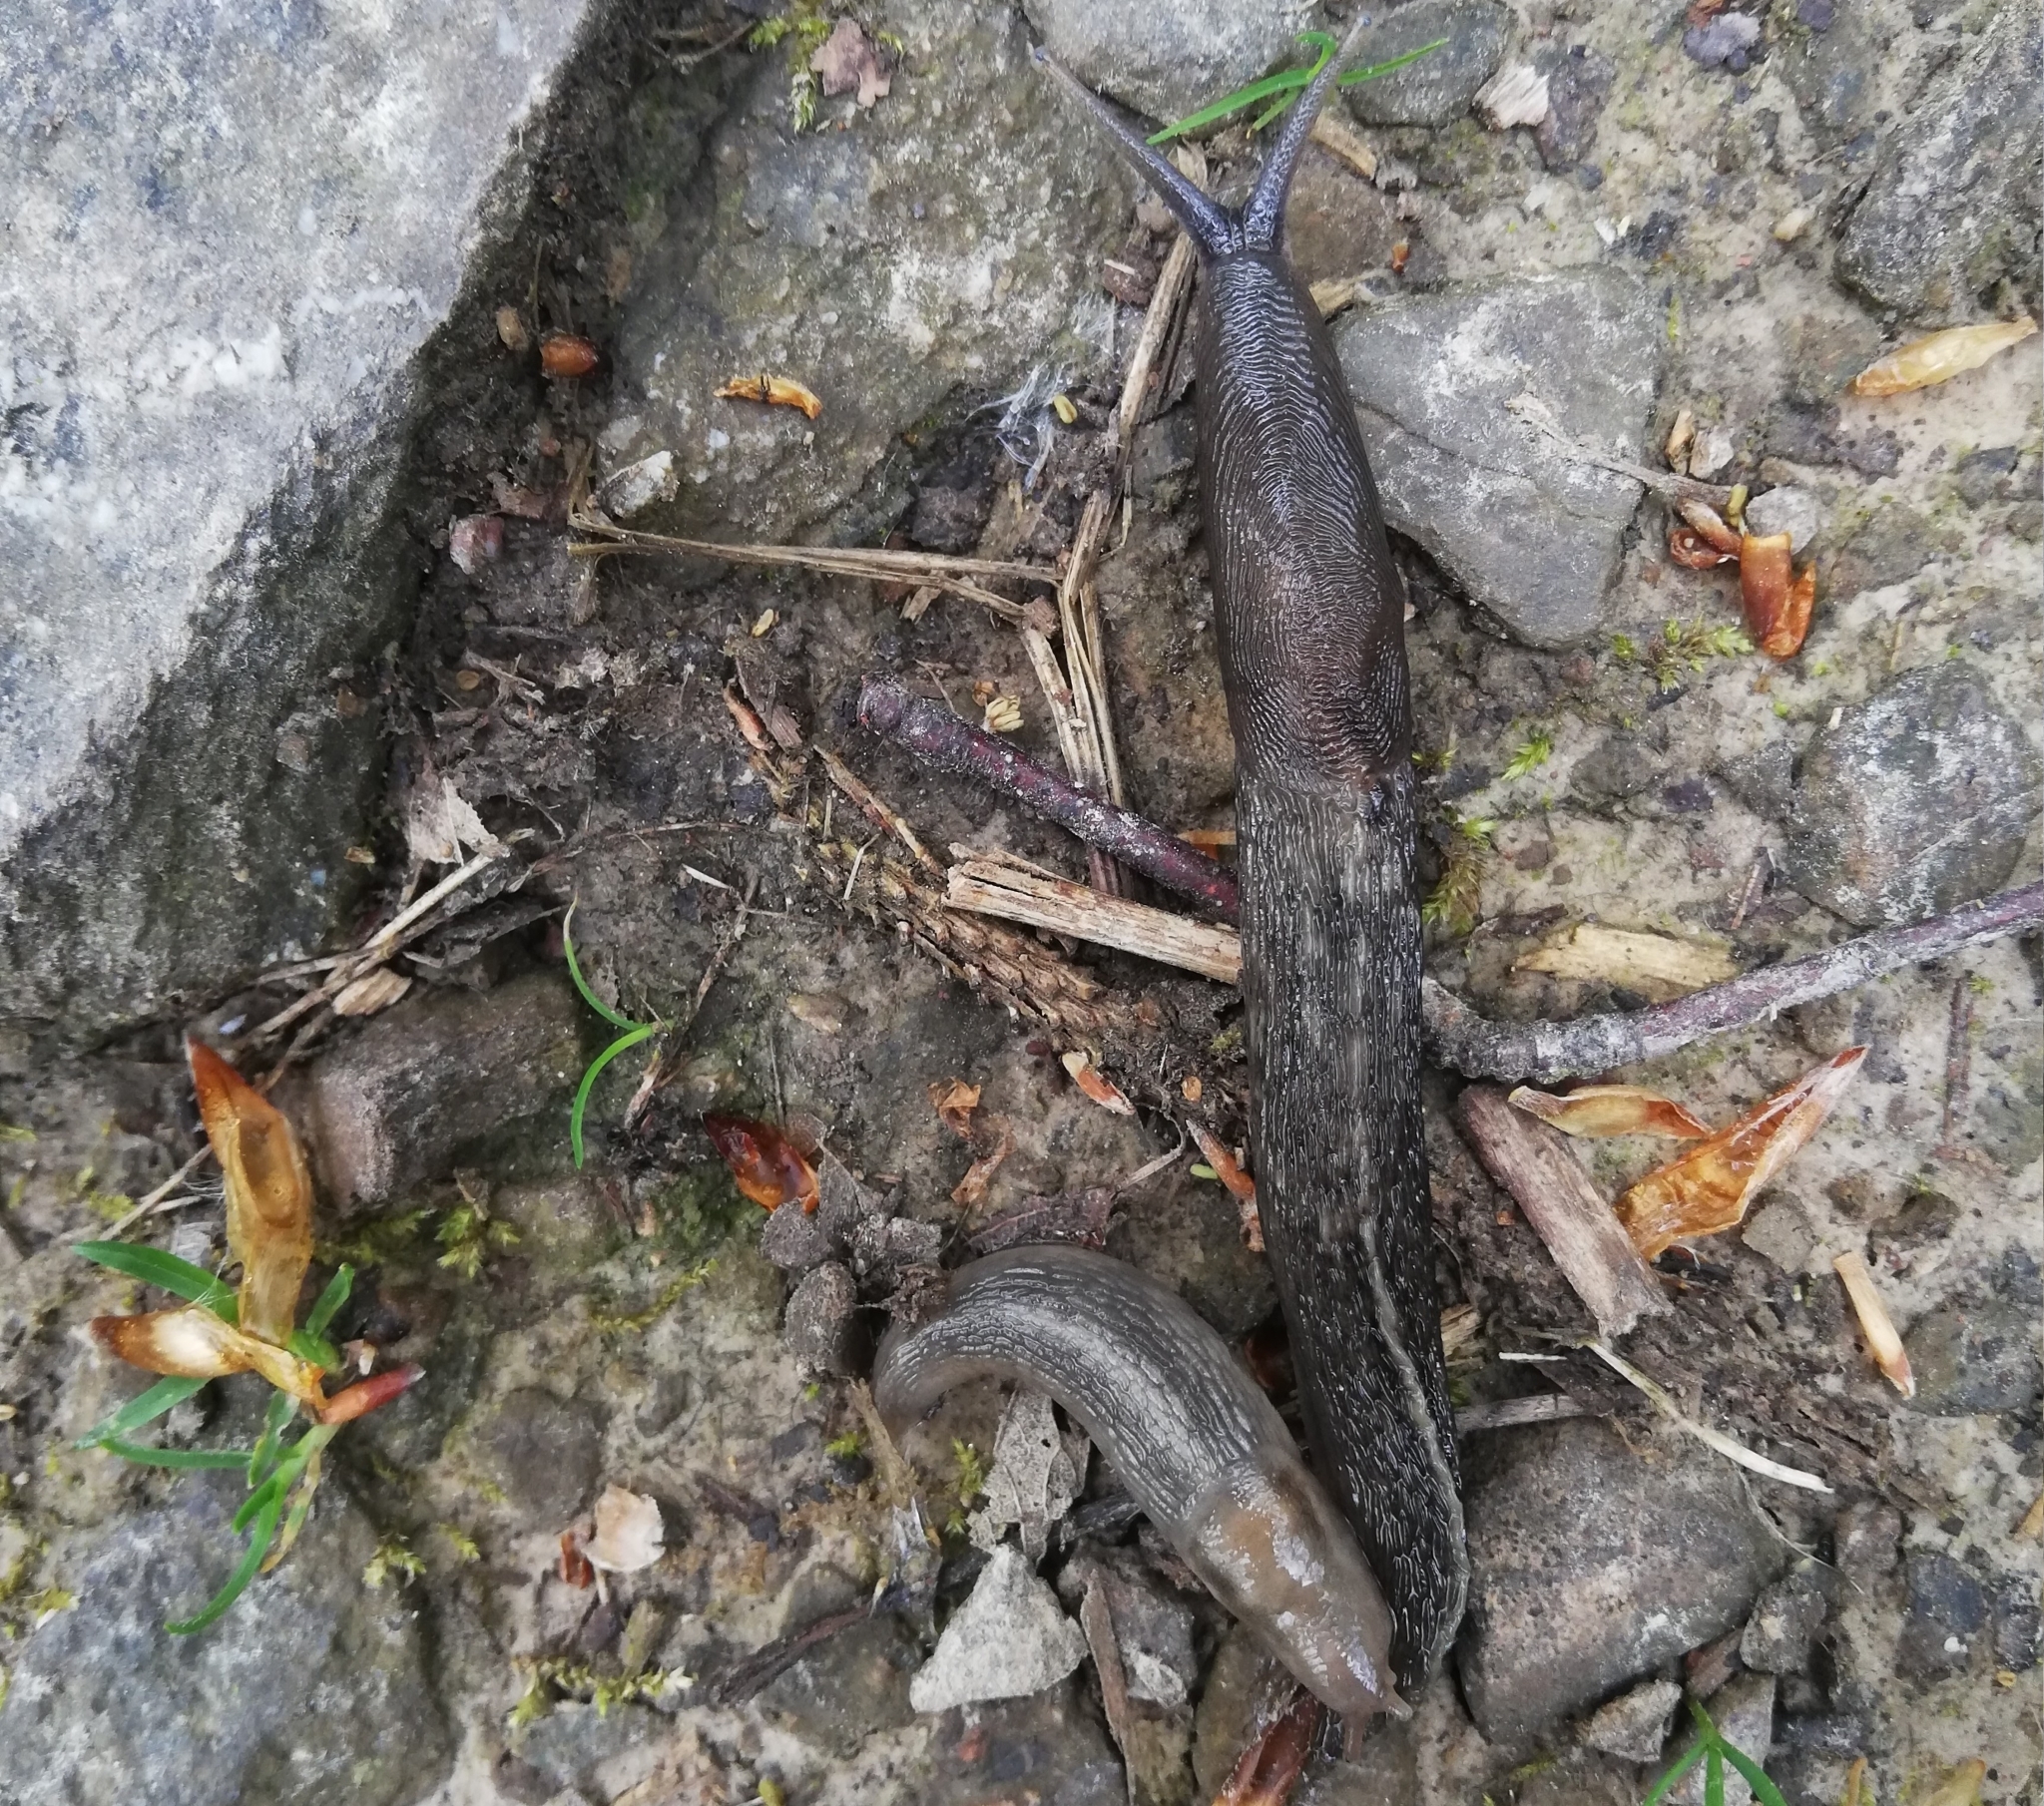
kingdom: Animalia
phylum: Mollusca
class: Gastropoda
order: Stylommatophora
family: Limacidae
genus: Lehmannia
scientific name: Lehmannia marginata
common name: Tree slug
